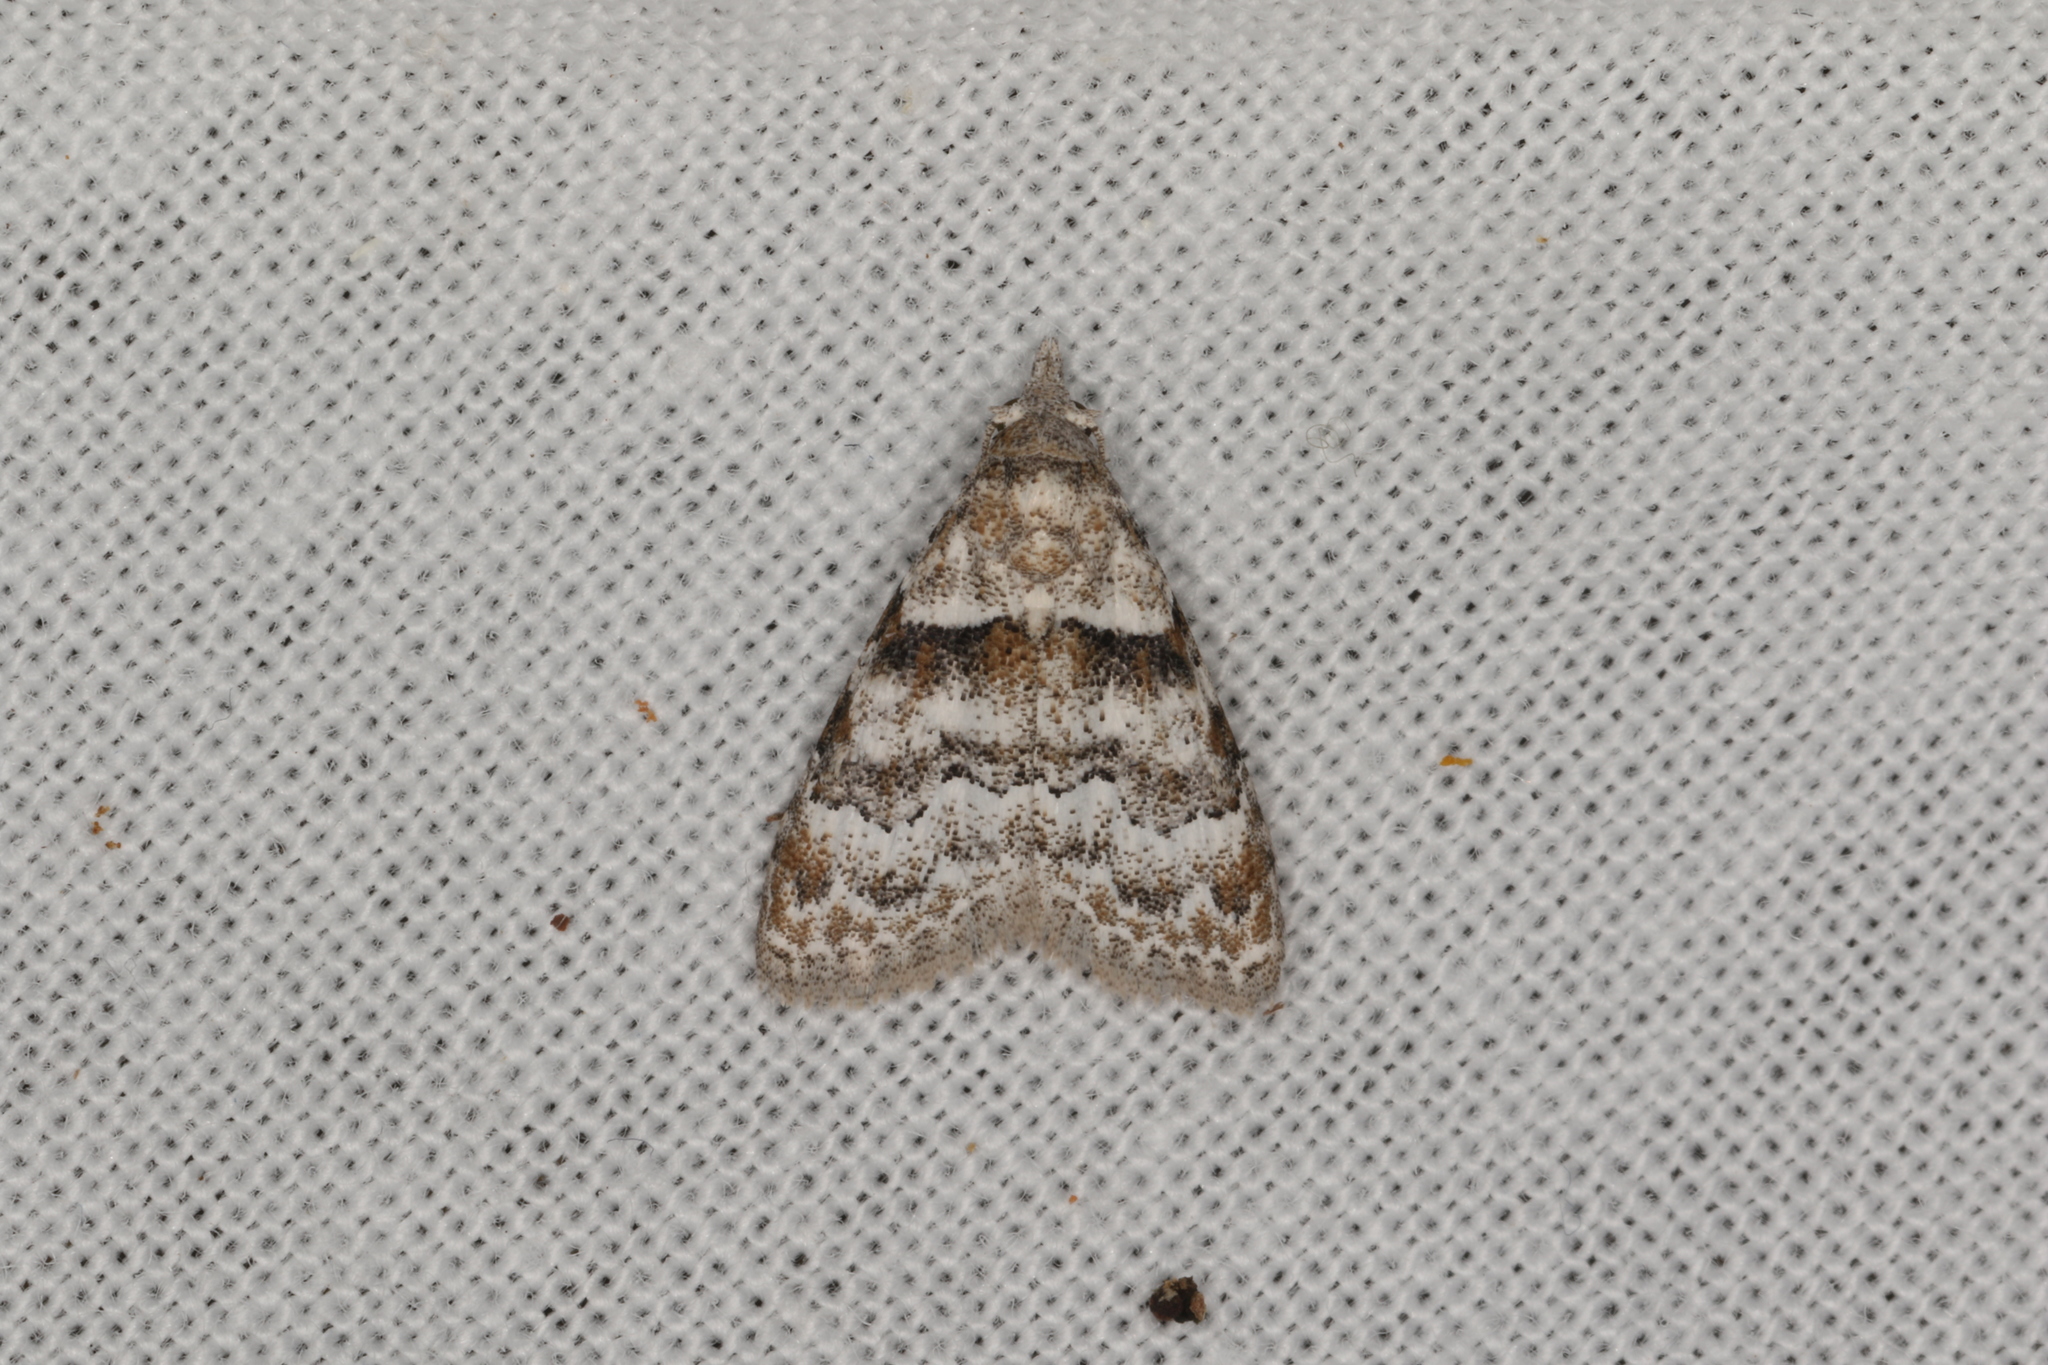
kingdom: Animalia
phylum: Arthropoda
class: Insecta
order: Lepidoptera
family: Nolidae
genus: Nola
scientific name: Nola pycnopasta
